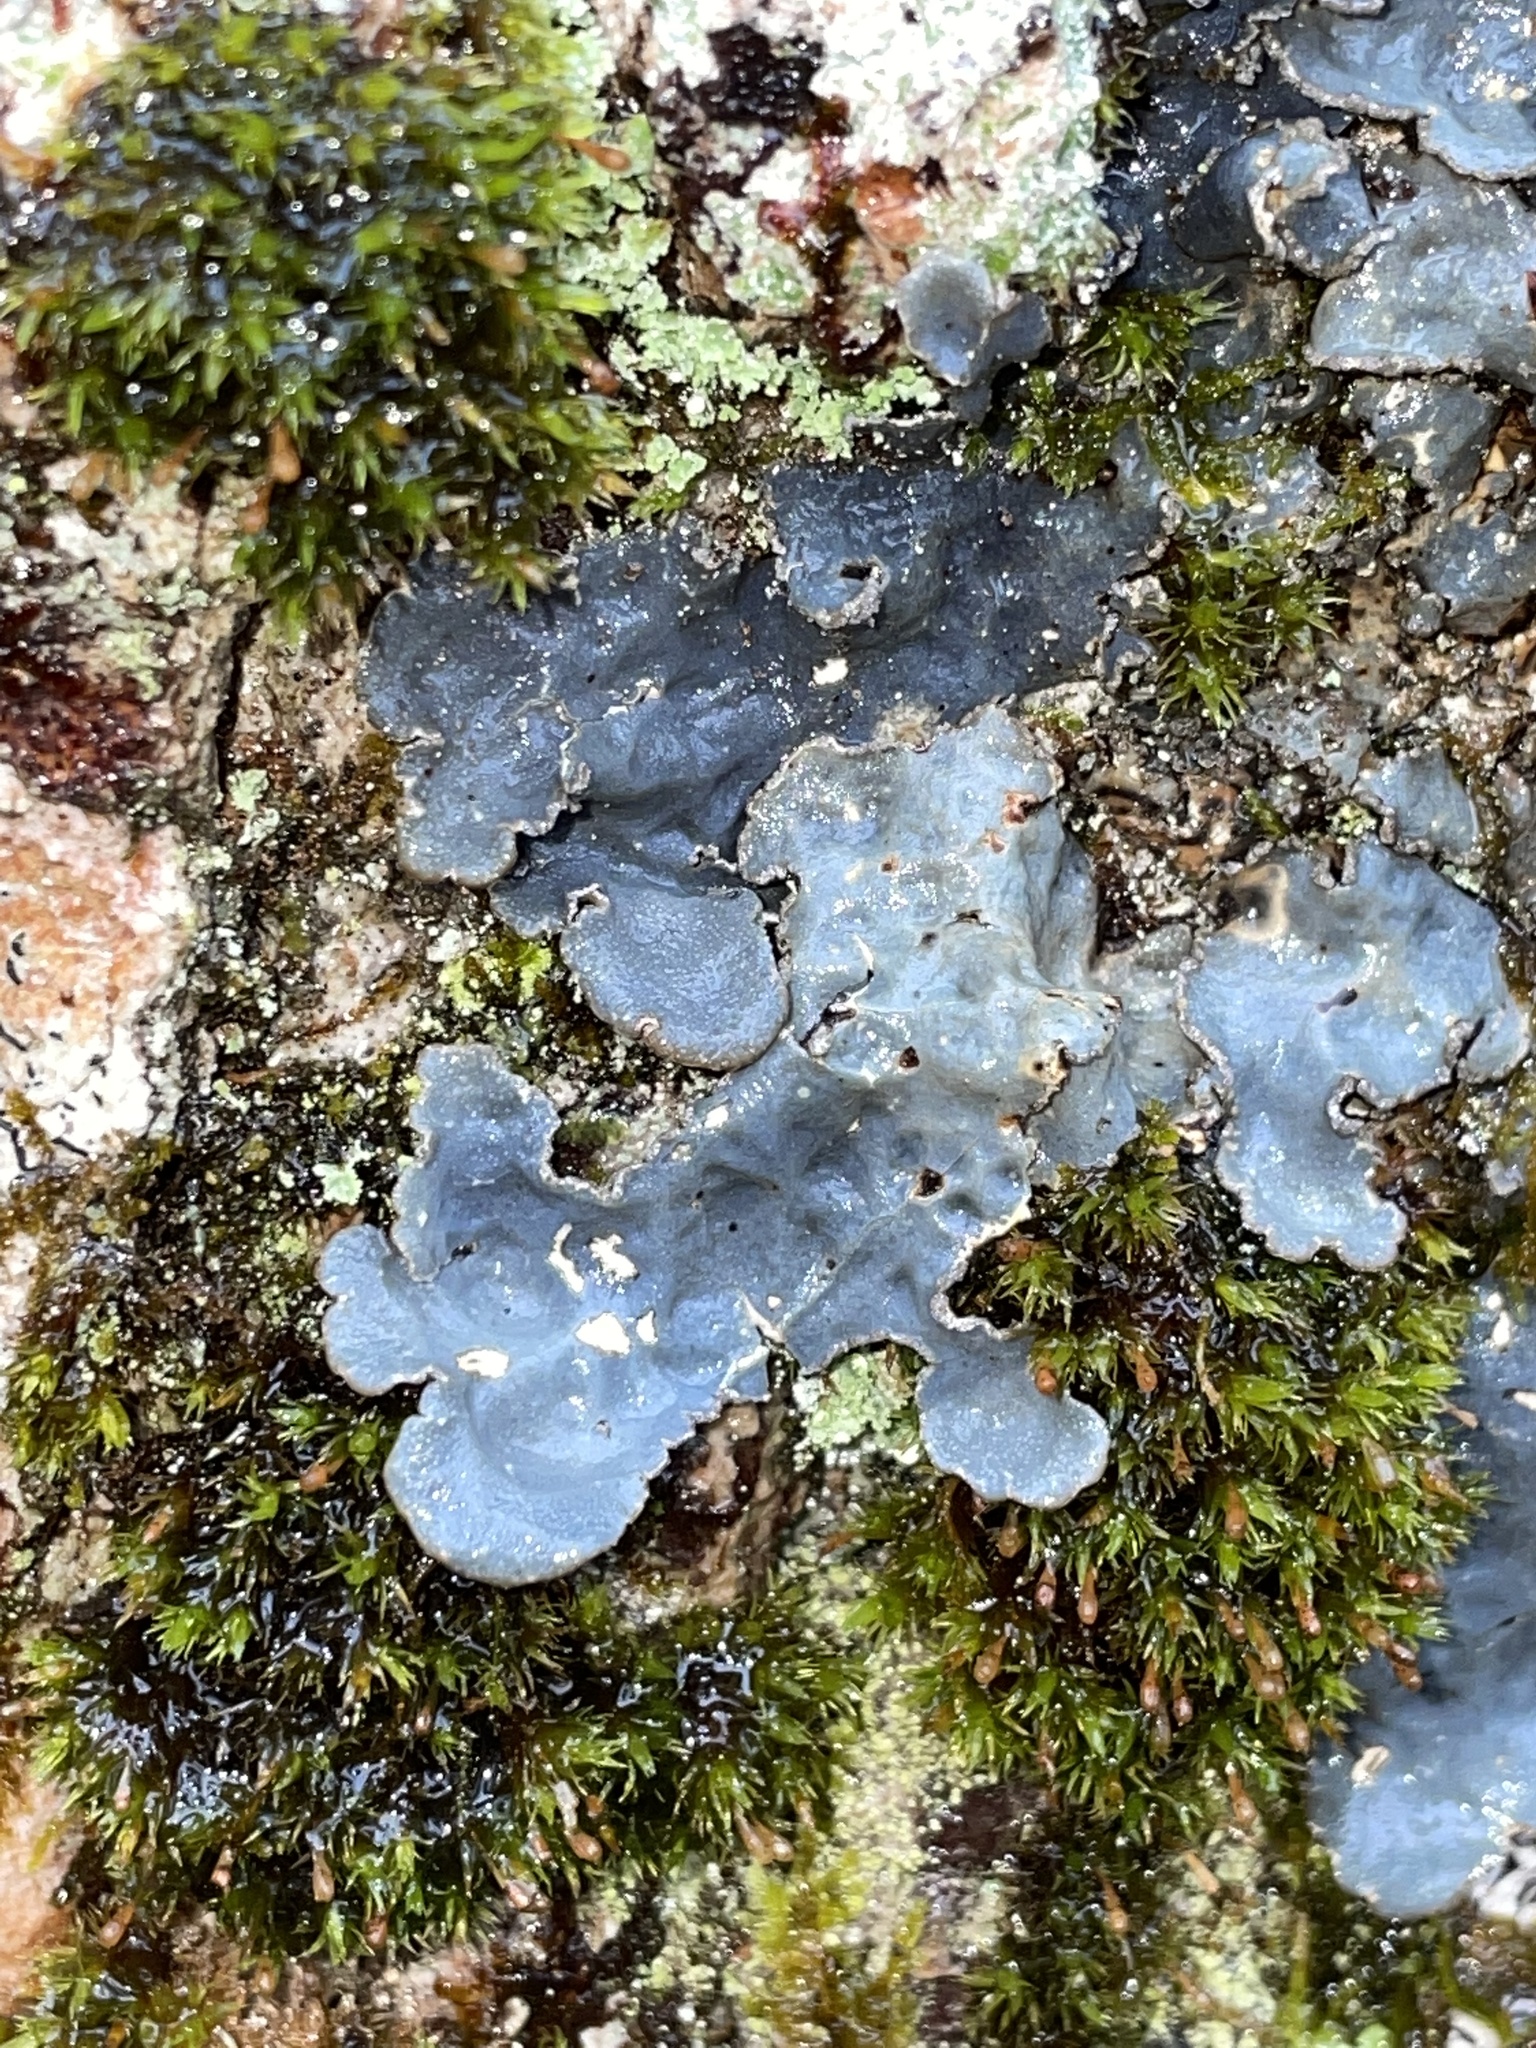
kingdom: Fungi
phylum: Ascomycota
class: Lecanoromycetes
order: Peltigerales
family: Lobariaceae
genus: Lobarina
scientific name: Lobarina scrobiculata
